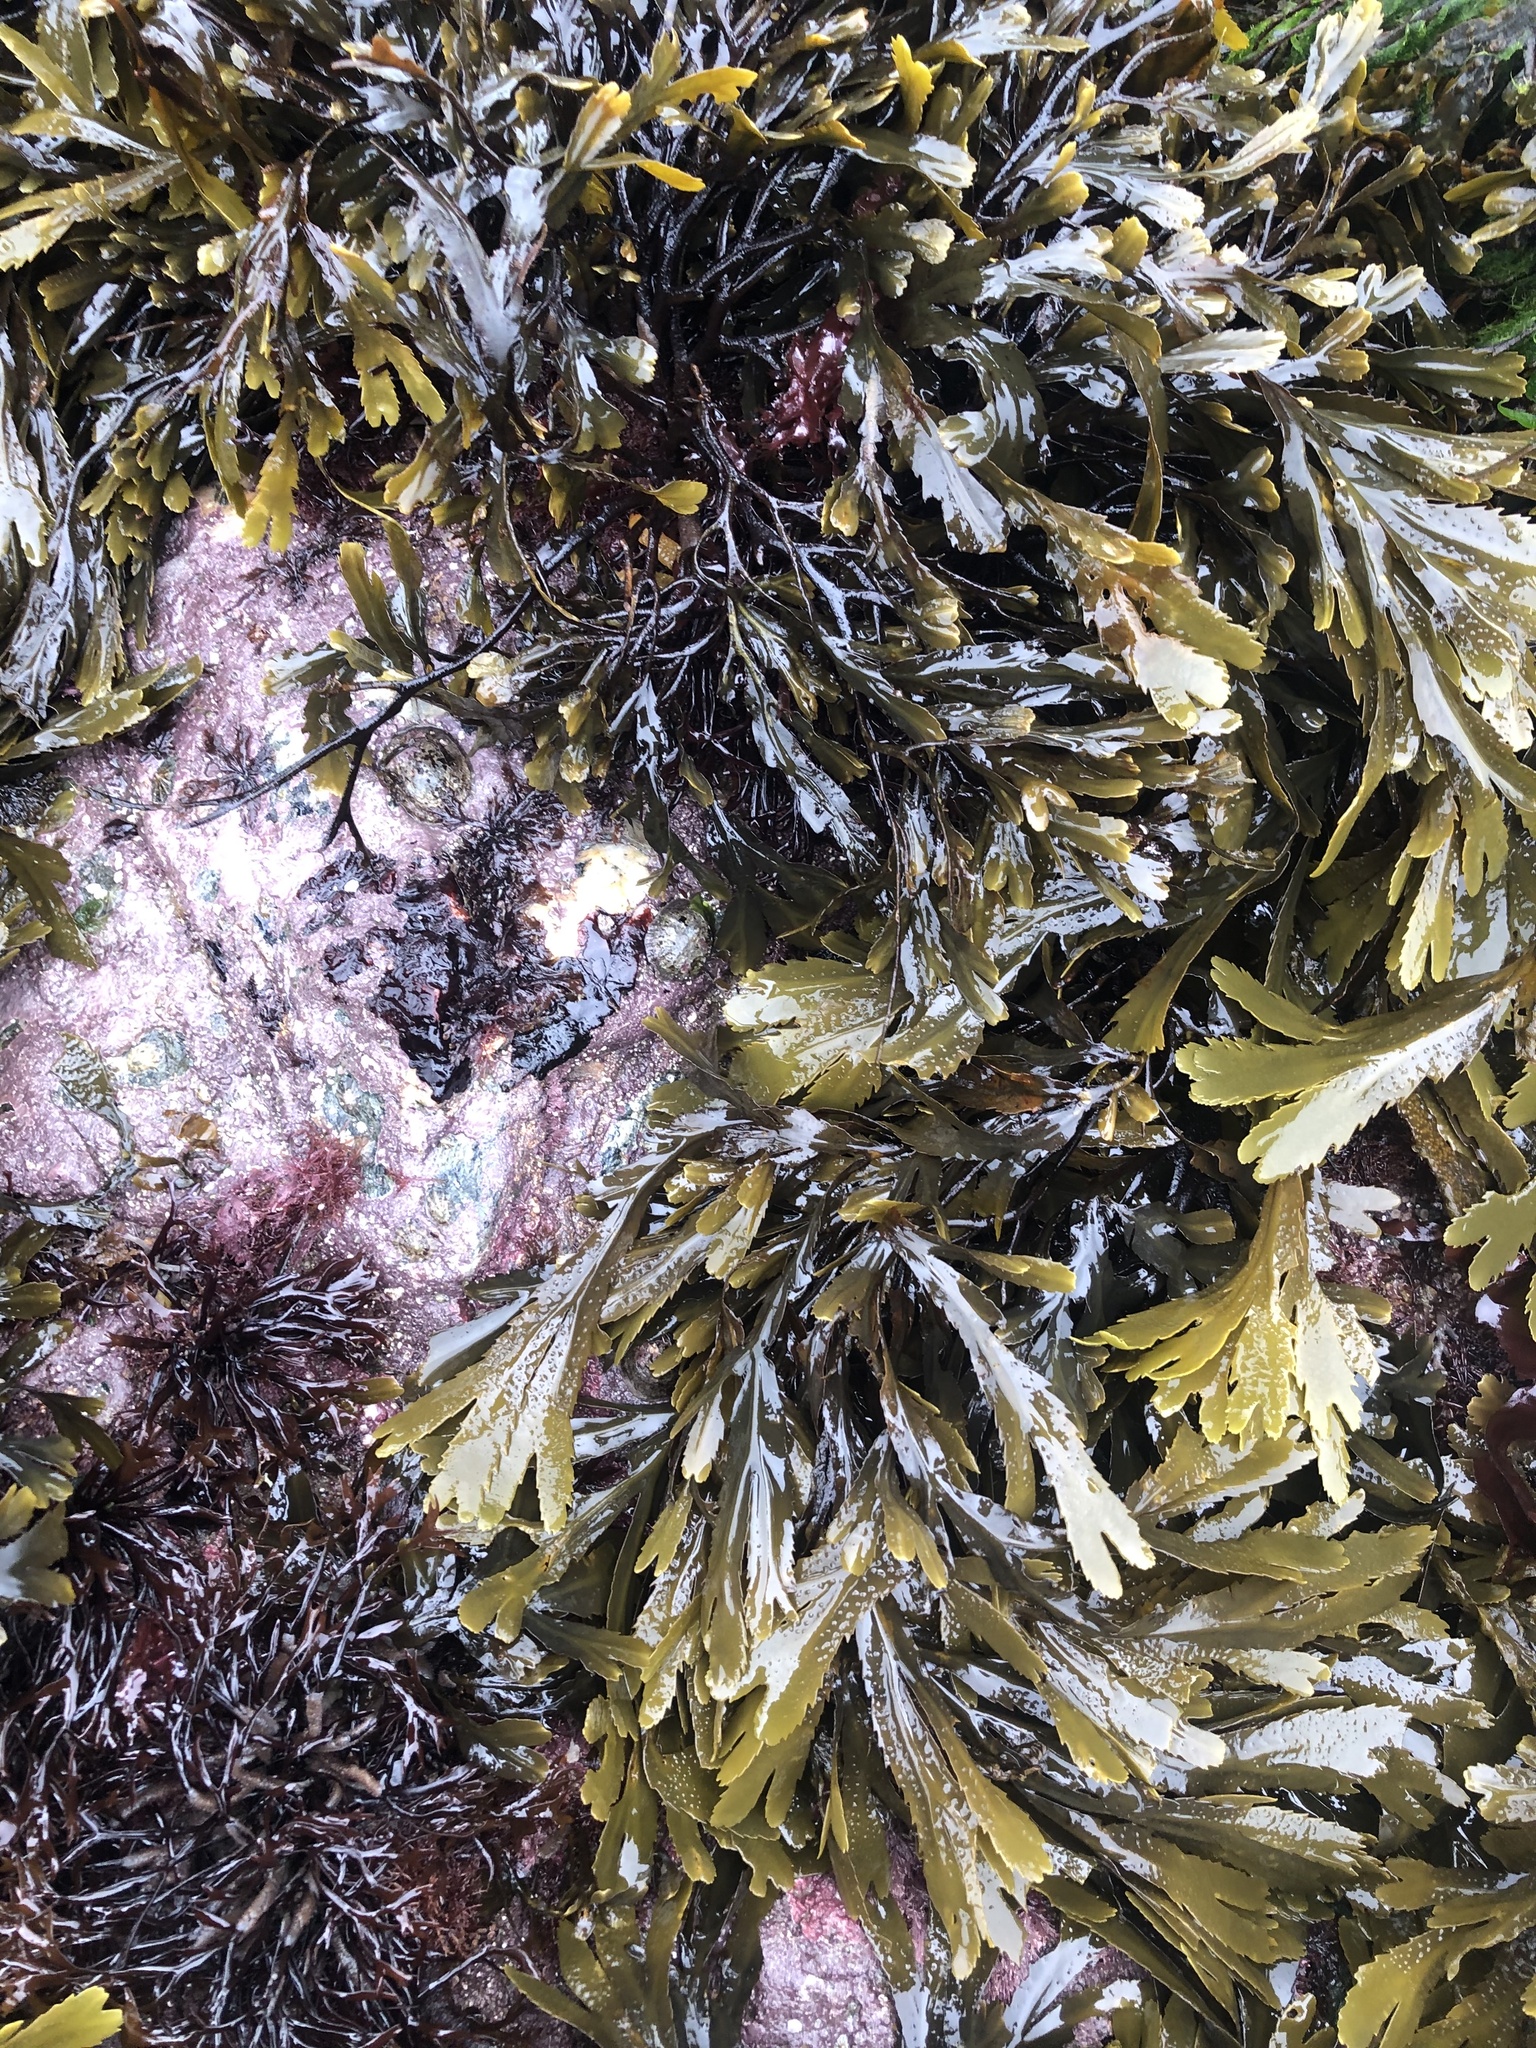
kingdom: Chromista
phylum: Ochrophyta
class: Phaeophyceae
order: Fucales
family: Fucaceae
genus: Fucus
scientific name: Fucus serratus
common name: Toothed wrack
